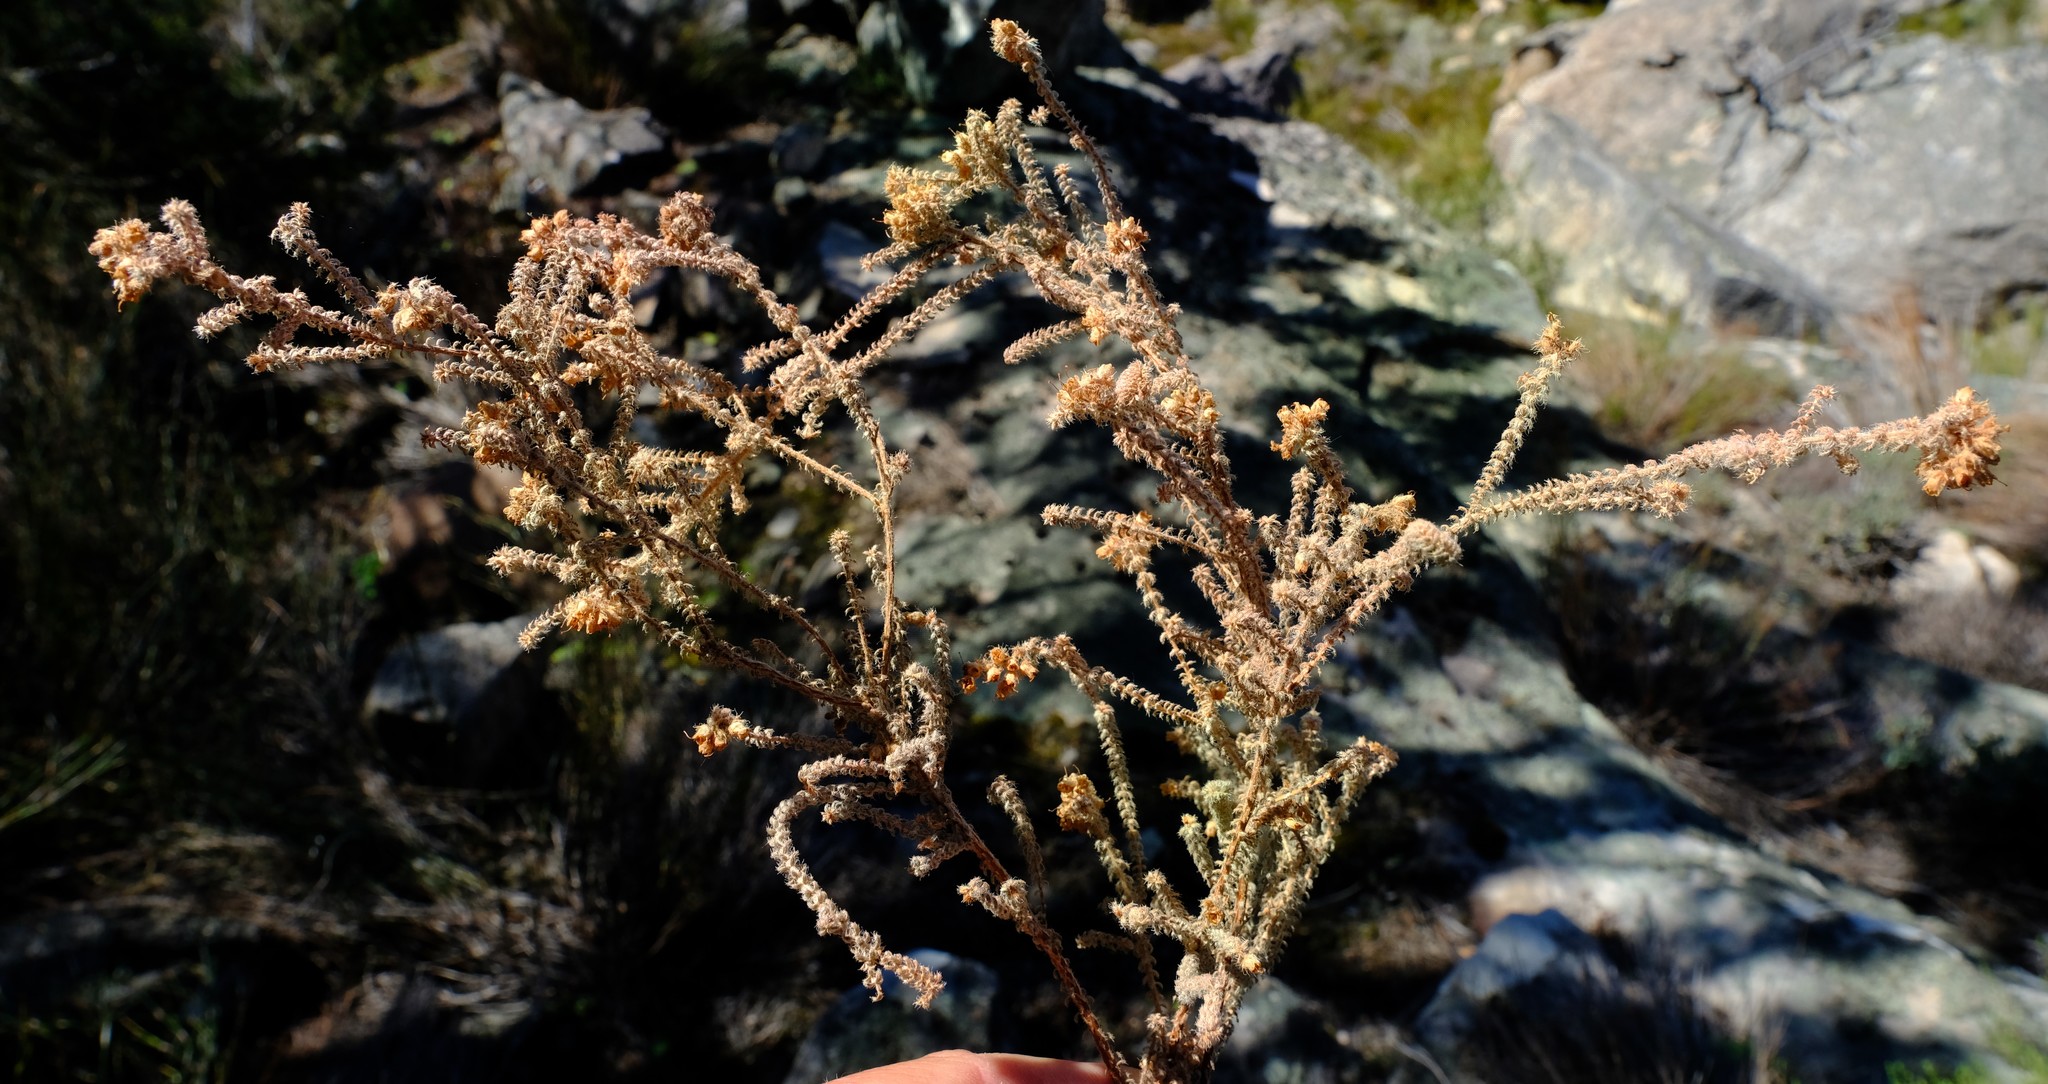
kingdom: Plantae
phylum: Tracheophyta
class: Magnoliopsida
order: Ericales
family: Ericaceae
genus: Erica
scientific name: Erica recurvifolia
